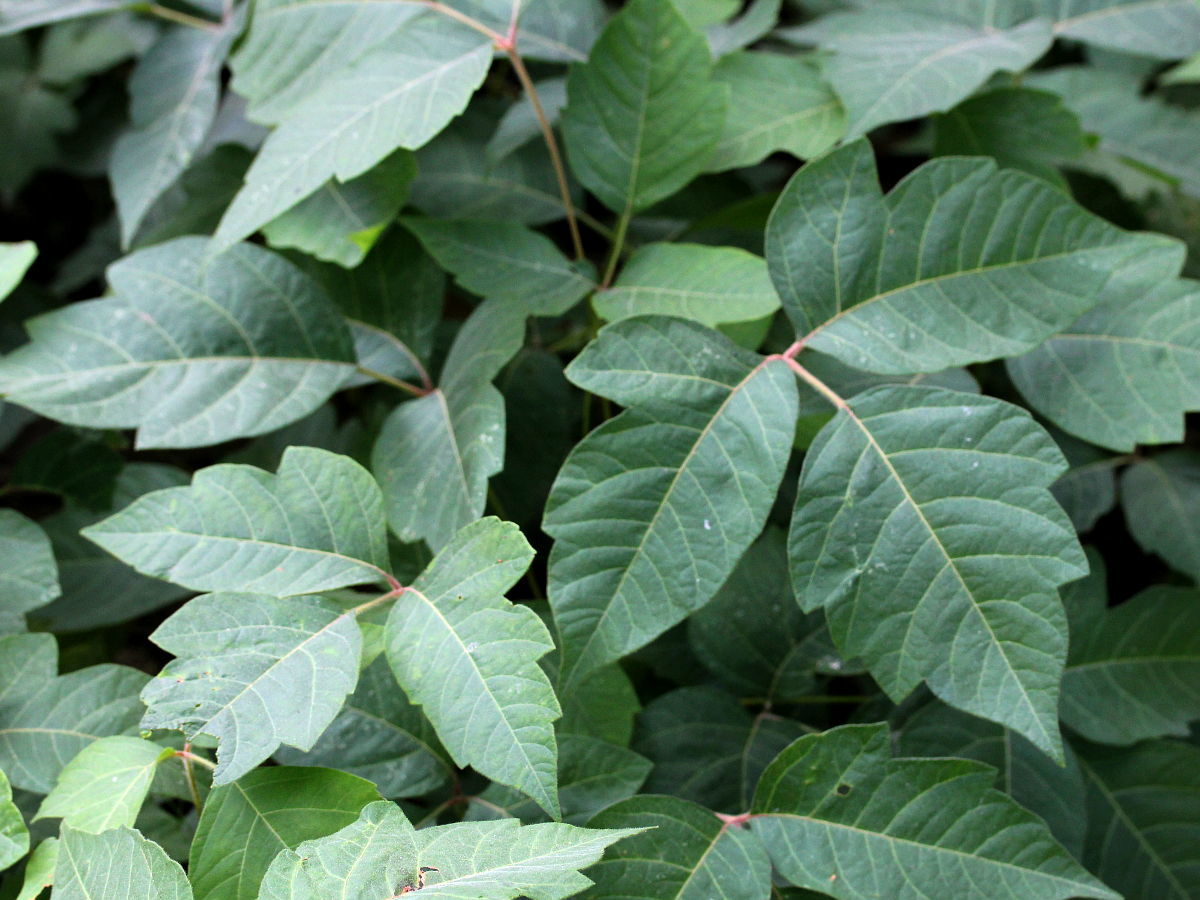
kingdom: Plantae
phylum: Tracheophyta
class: Magnoliopsida
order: Sapindales
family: Anacardiaceae
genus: Toxicodendron
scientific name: Toxicodendron radicans
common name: Poison ivy
